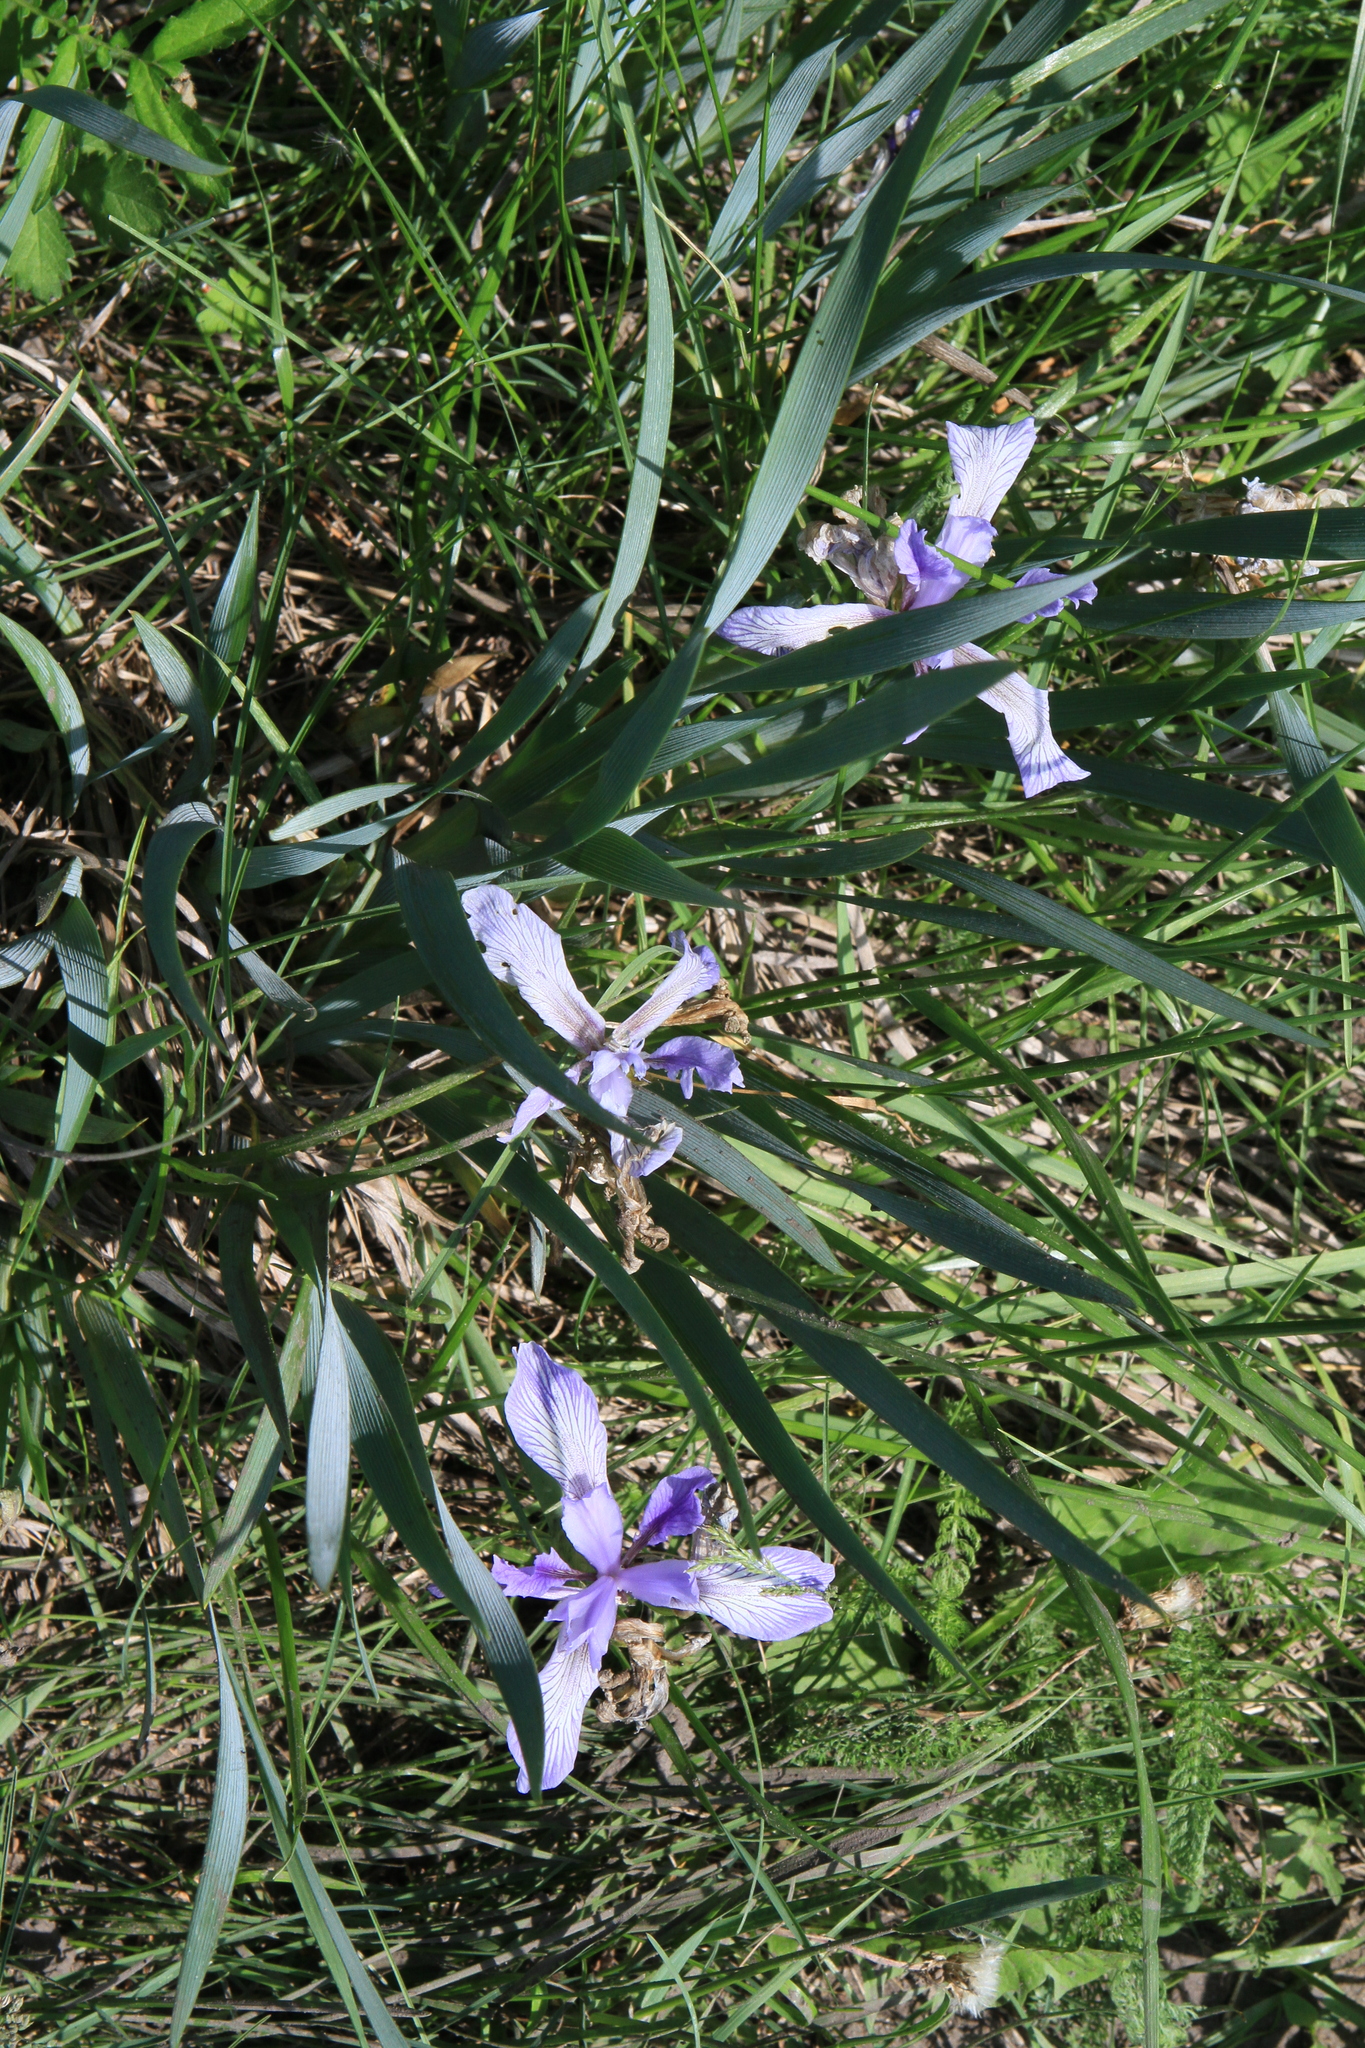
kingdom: Plantae
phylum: Tracheophyta
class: Liliopsida
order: Asparagales
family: Iridaceae
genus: Iris
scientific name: Iris lactea
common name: White-flower chinese iris
